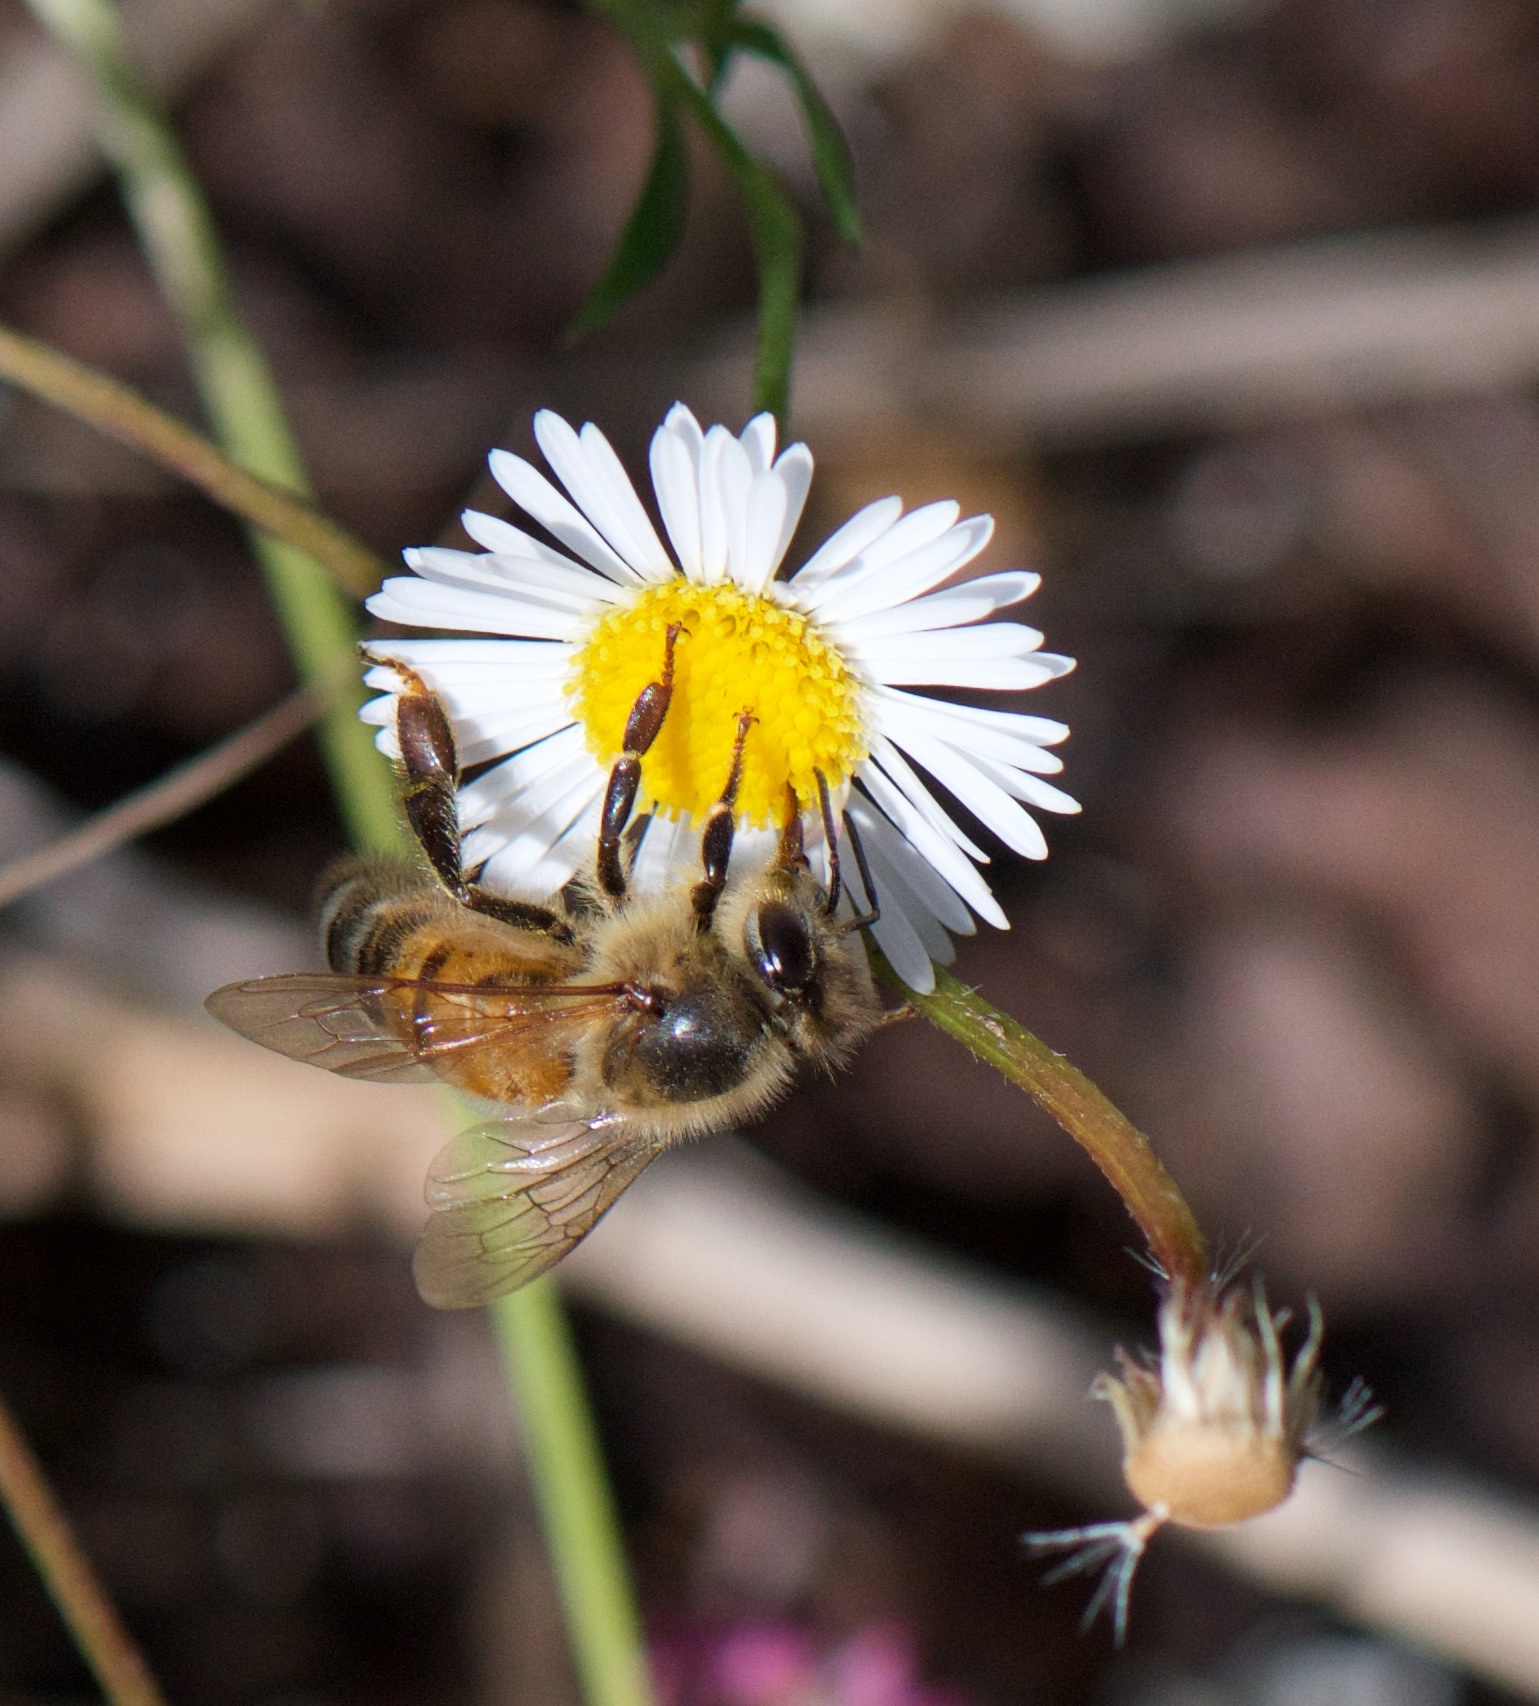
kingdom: Animalia
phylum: Arthropoda
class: Insecta
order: Hymenoptera
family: Apidae
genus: Apis
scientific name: Apis mellifera
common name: Honey bee
